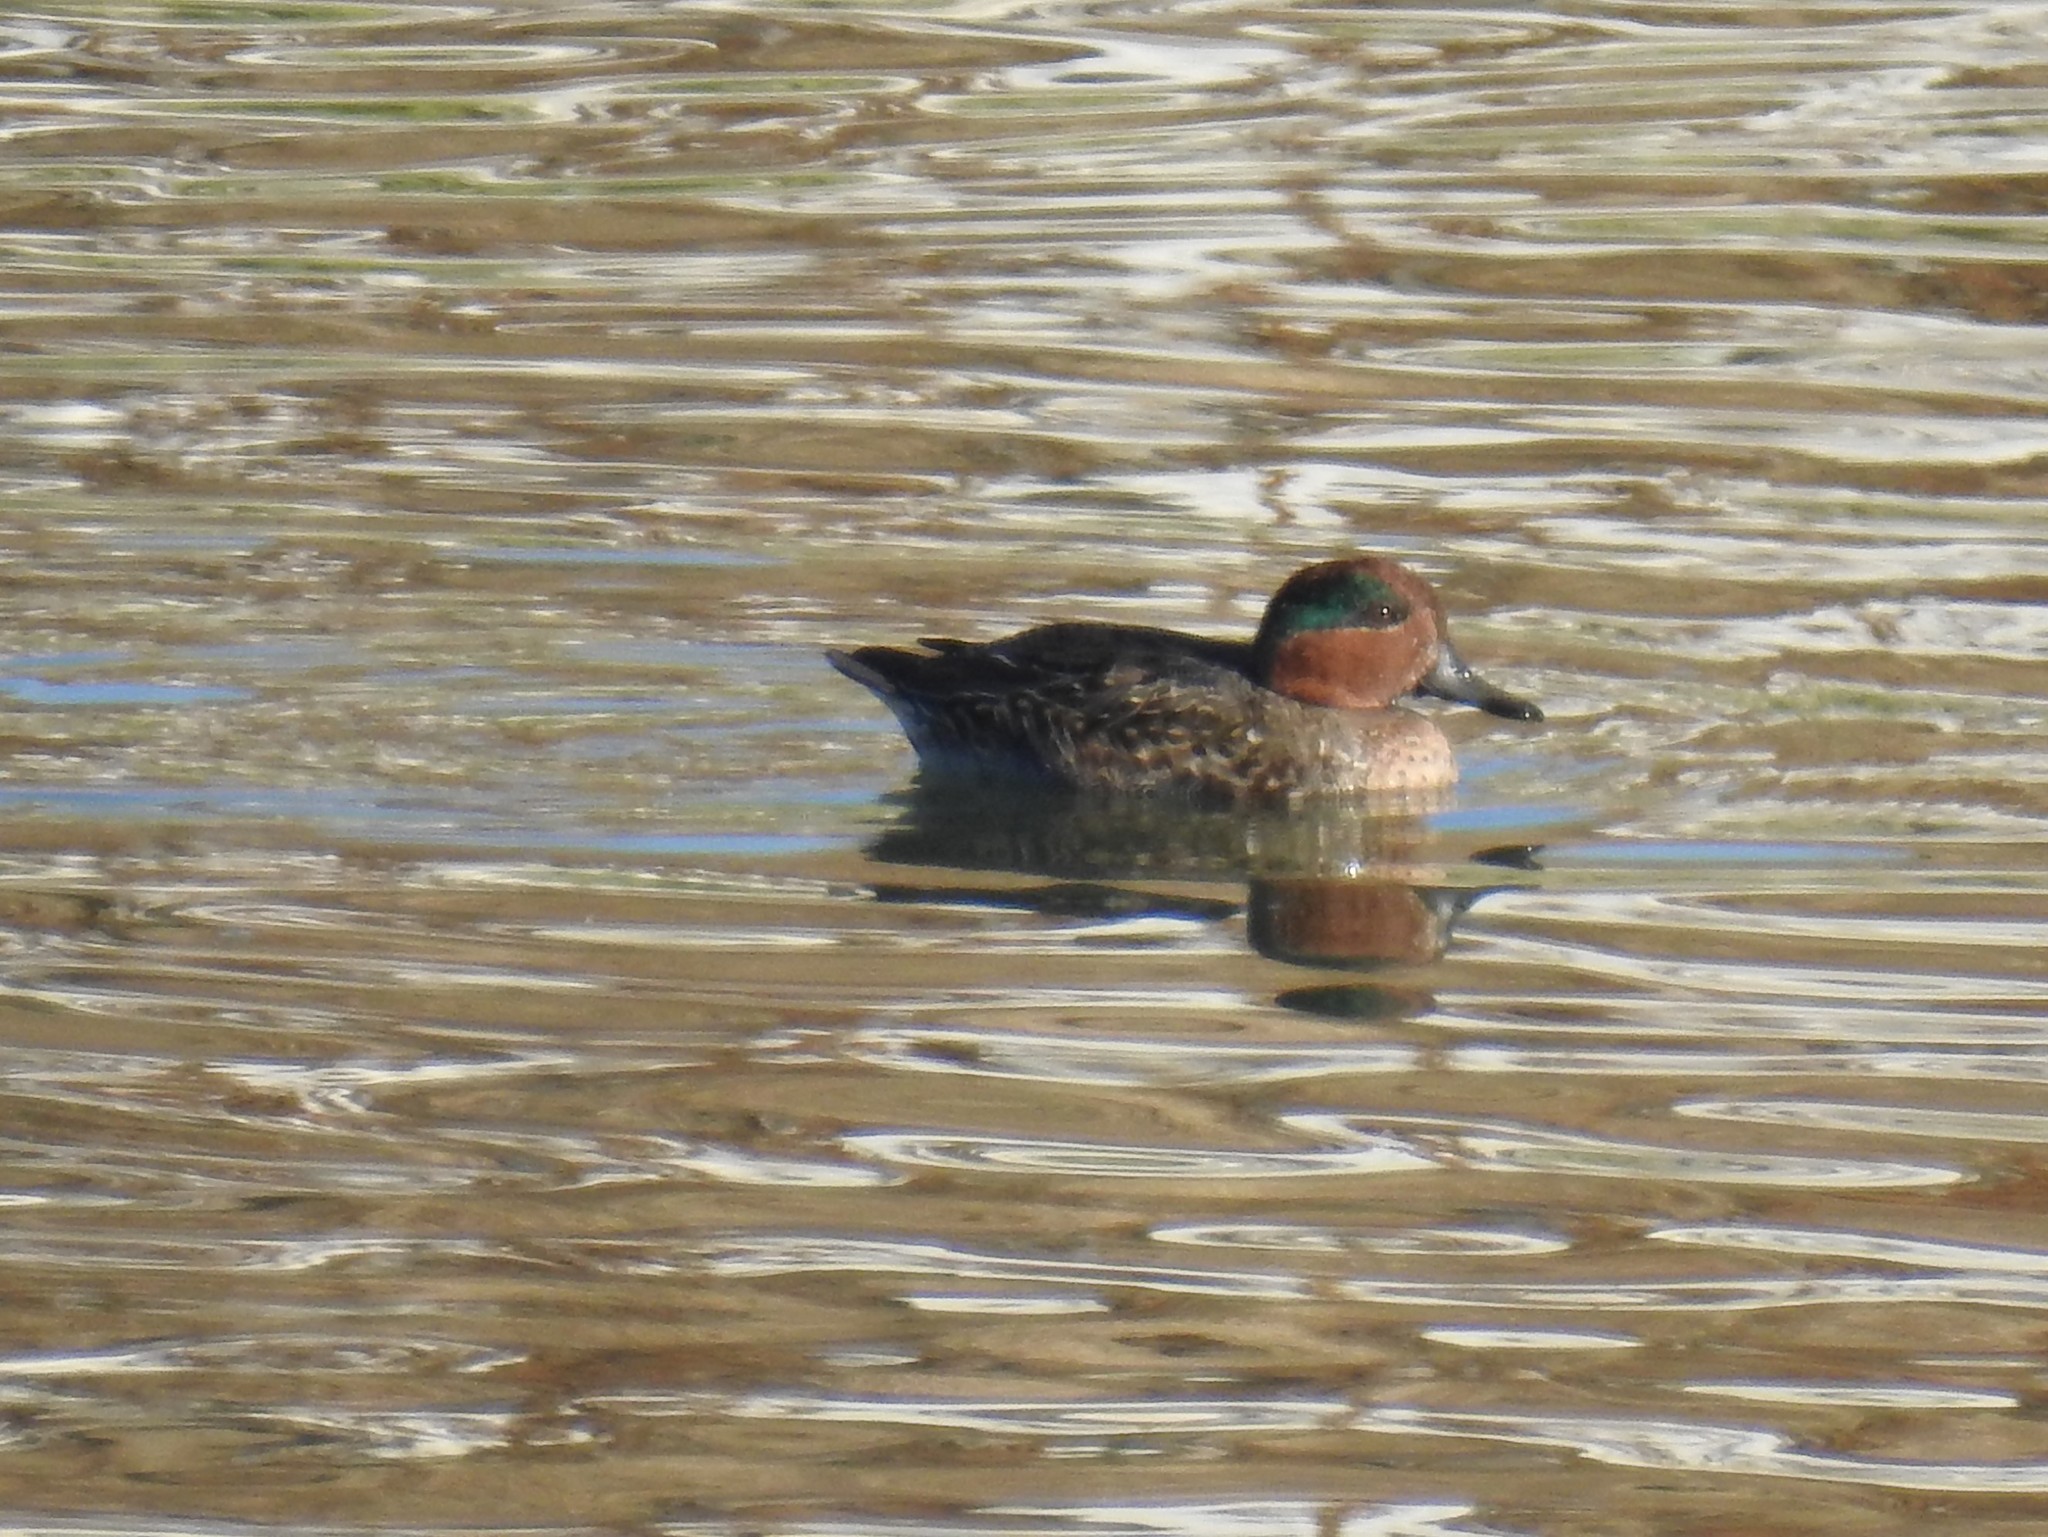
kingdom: Animalia
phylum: Chordata
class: Aves
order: Anseriformes
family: Anatidae
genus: Anas
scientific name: Anas crecca
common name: Eurasian teal
